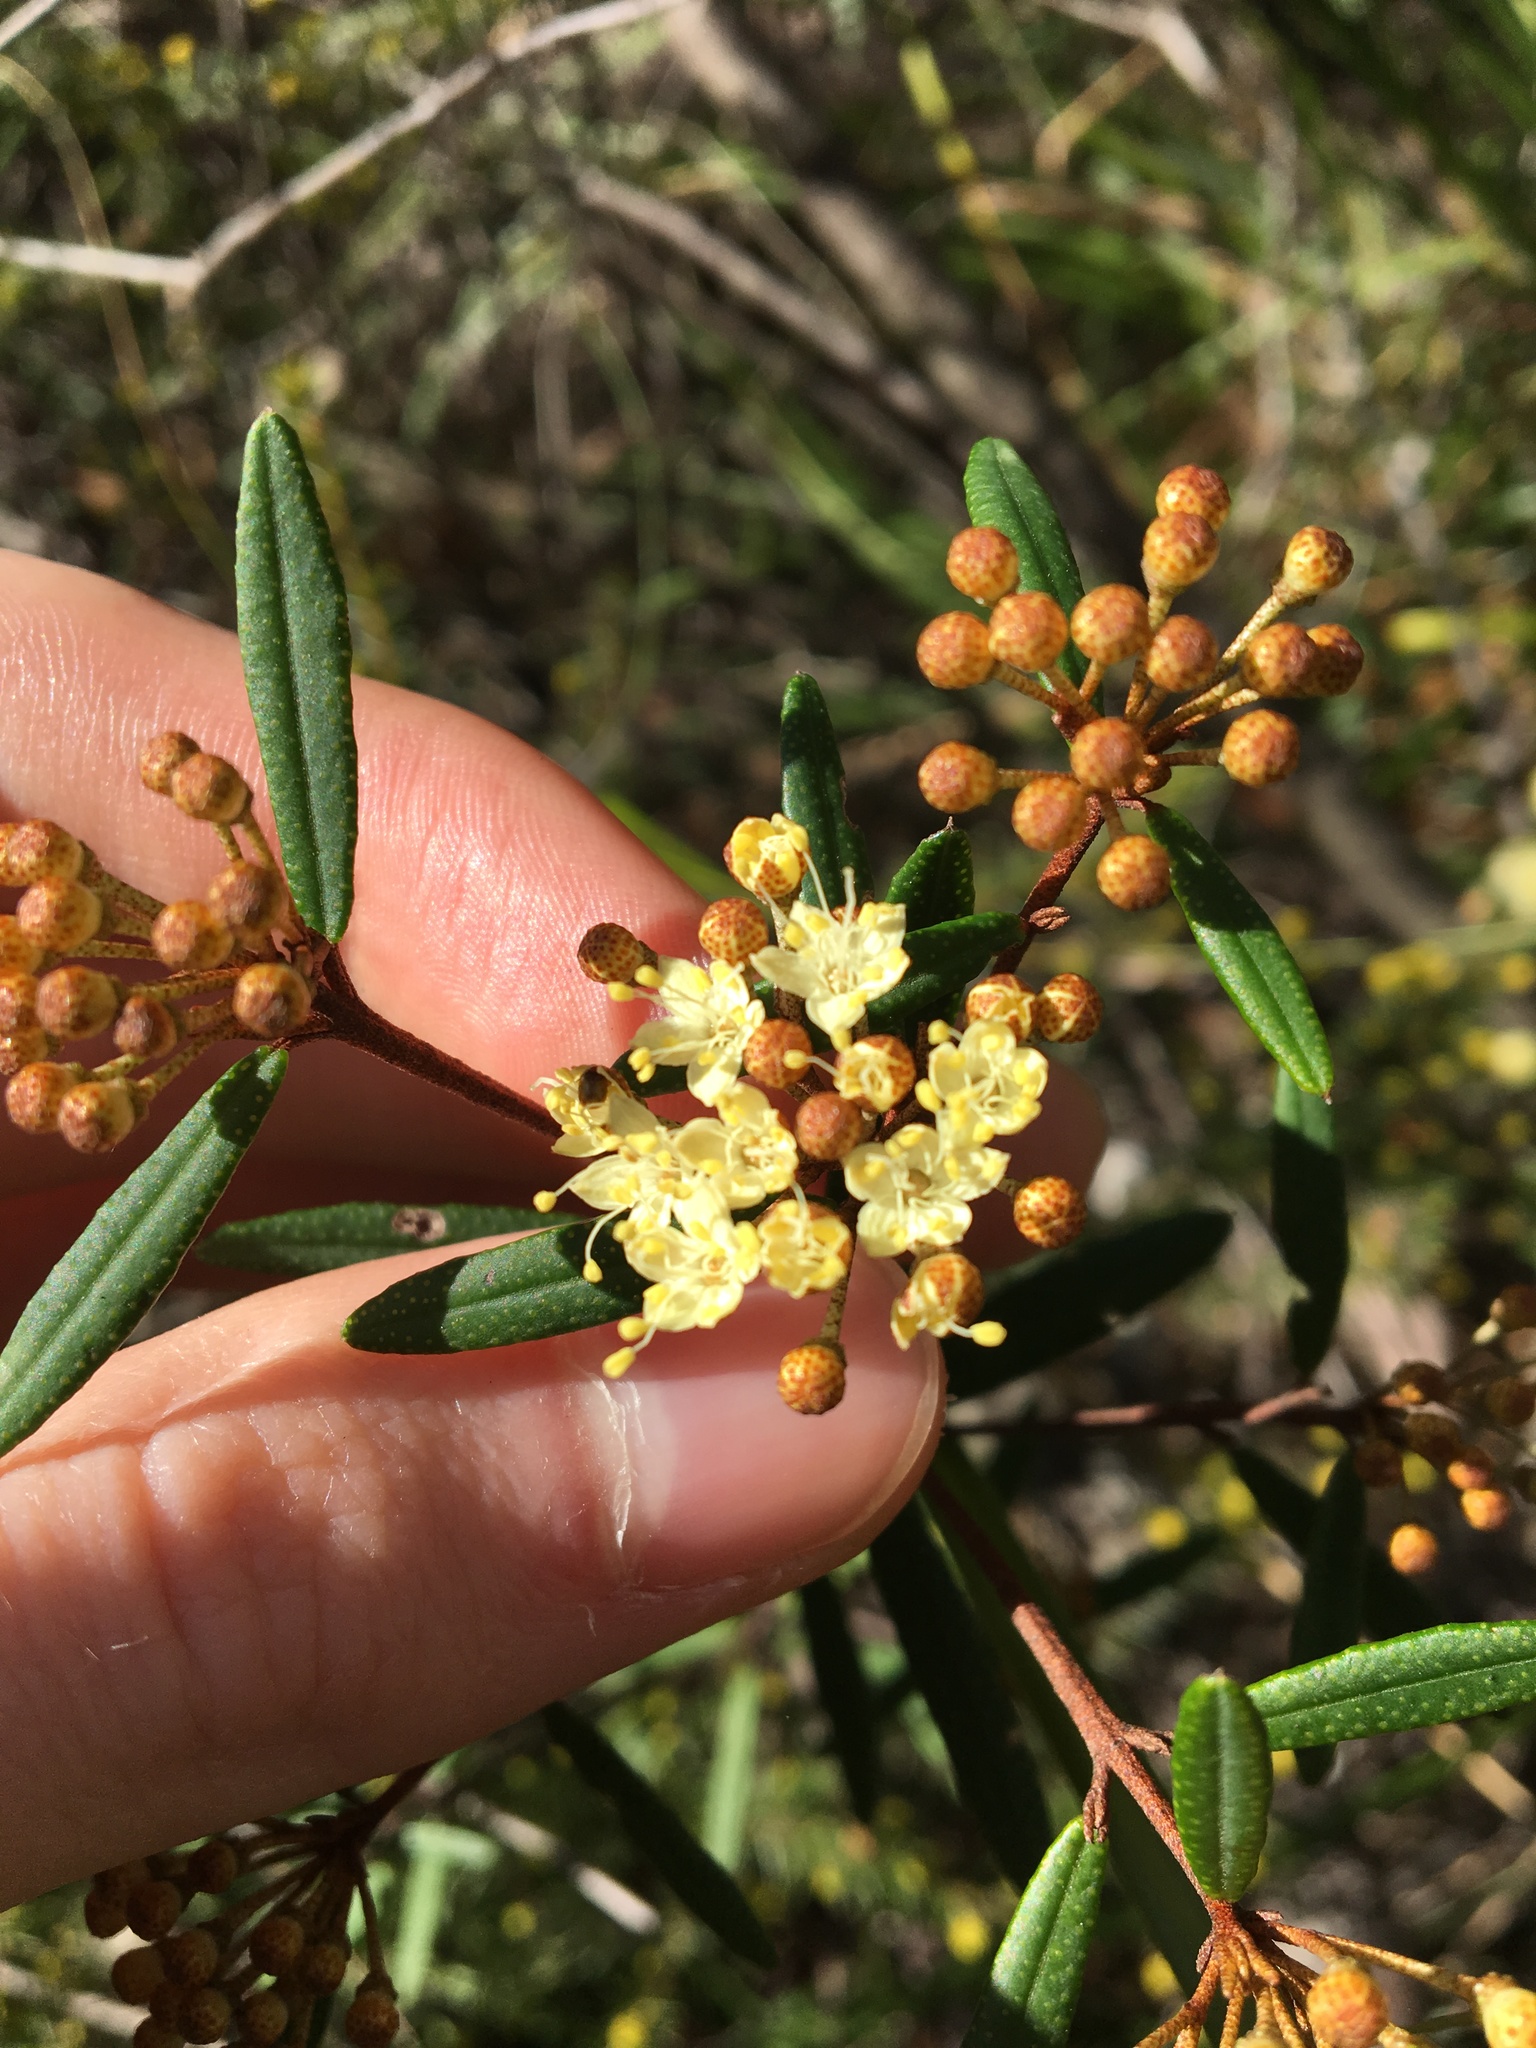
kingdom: Plantae
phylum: Tracheophyta
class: Magnoliopsida
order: Sapindales
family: Rutaceae
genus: Phebalium
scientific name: Phebalium squamulosum
